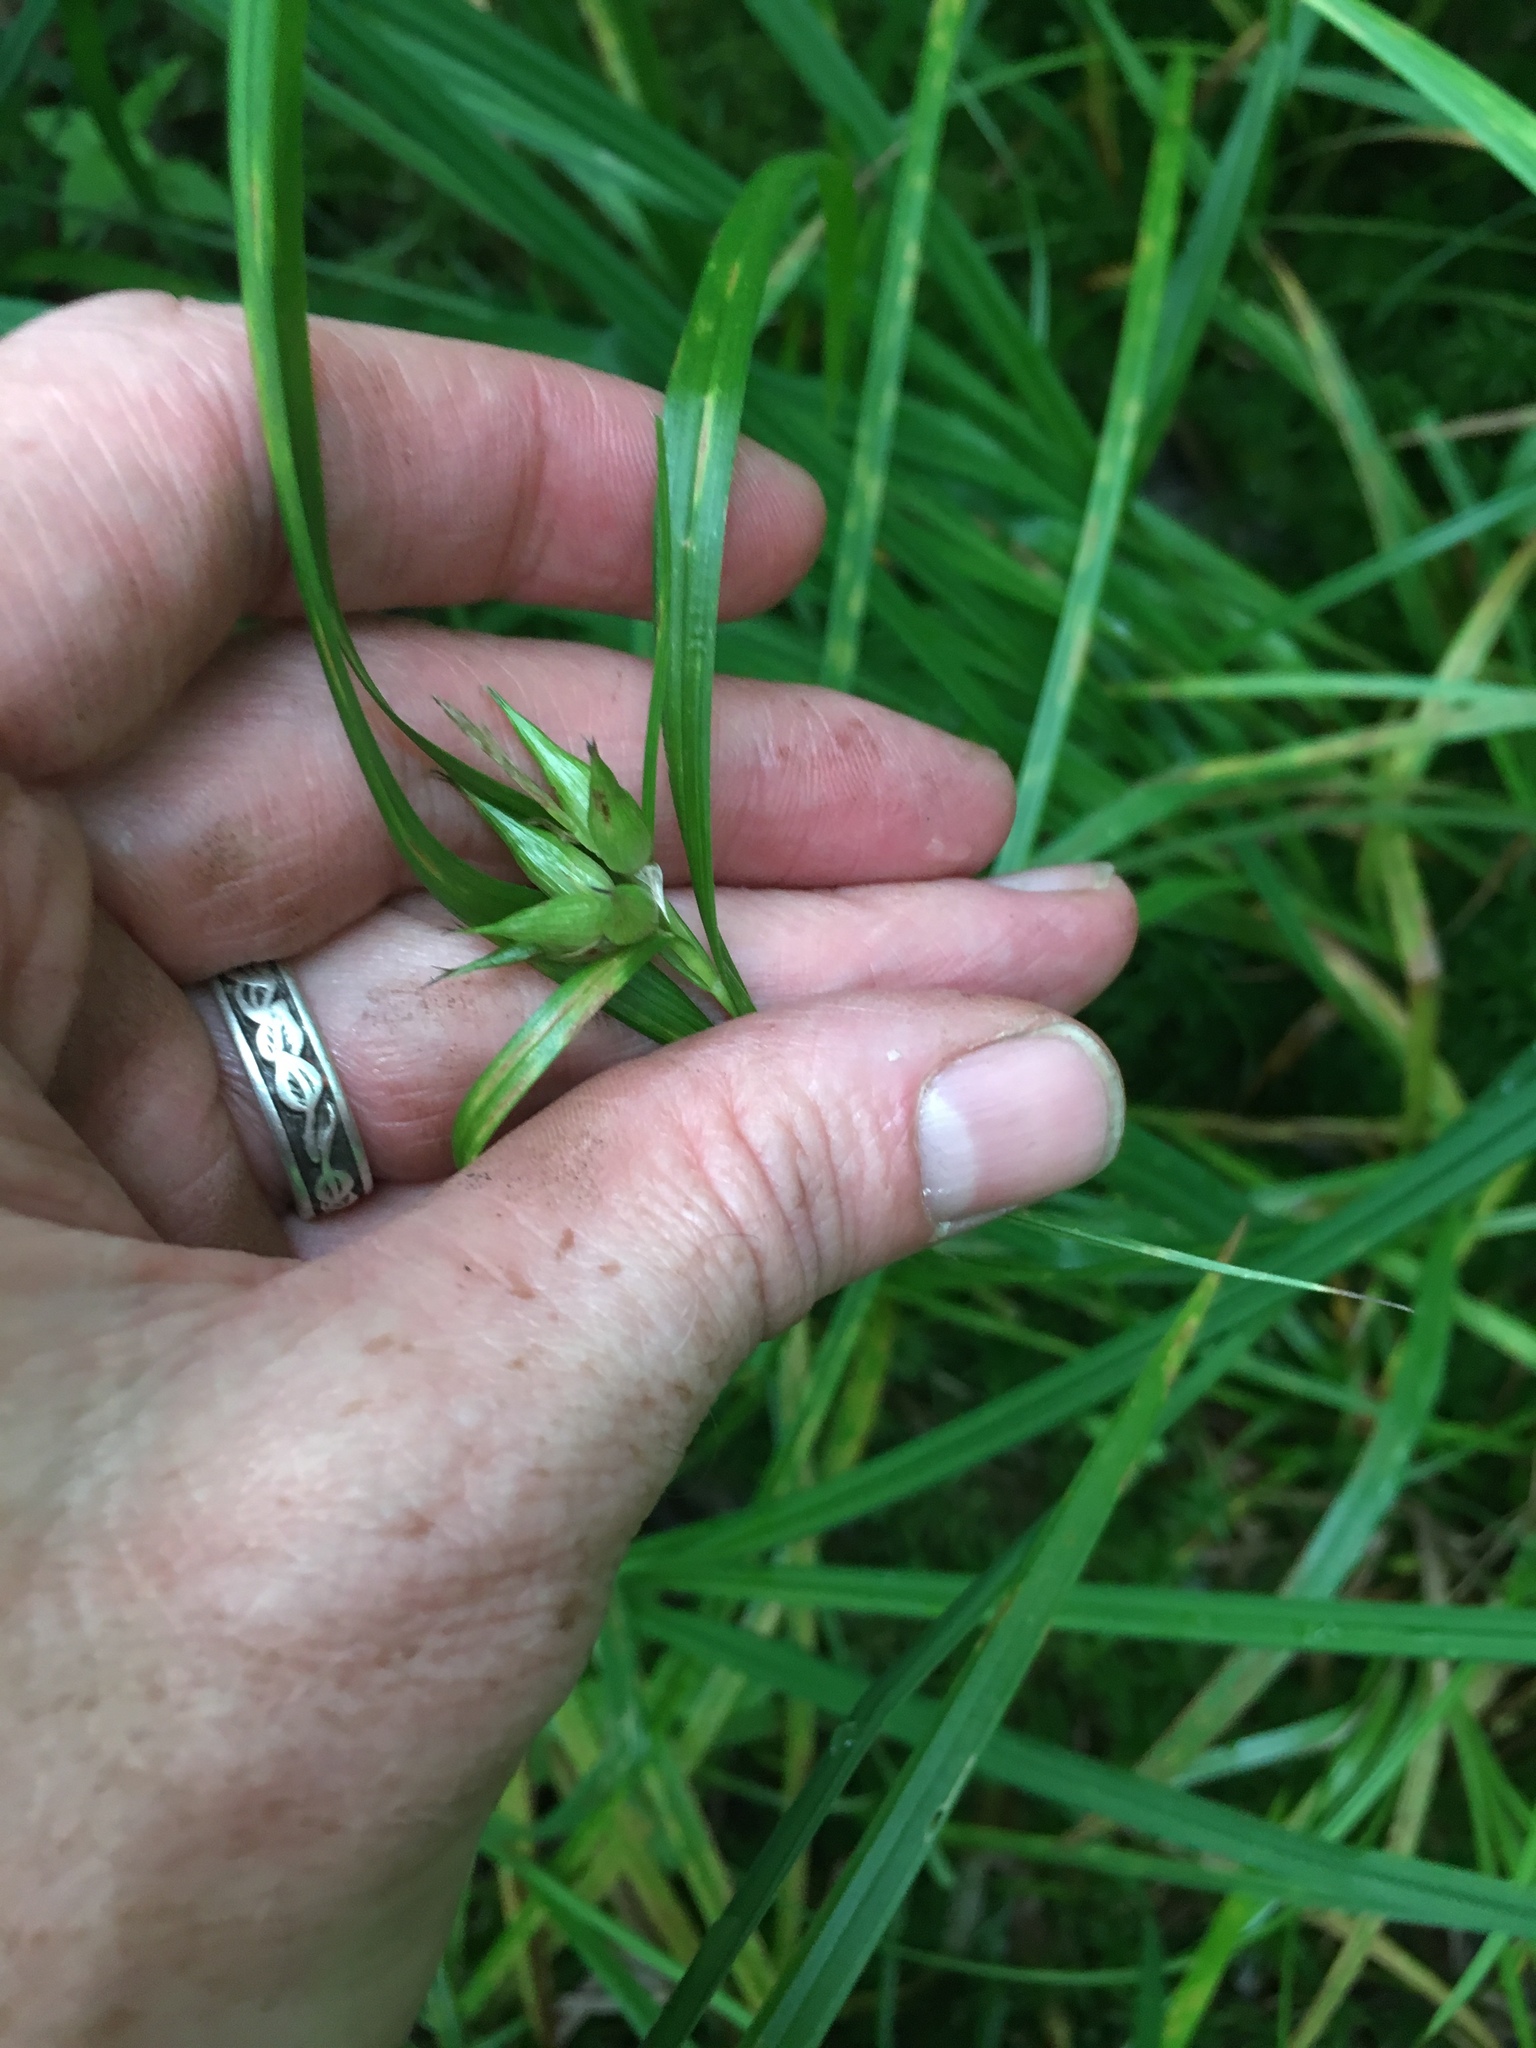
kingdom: Plantae
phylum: Tracheophyta
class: Liliopsida
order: Poales
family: Cyperaceae
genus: Carex
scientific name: Carex intumescens
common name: Greater bladder sedge
